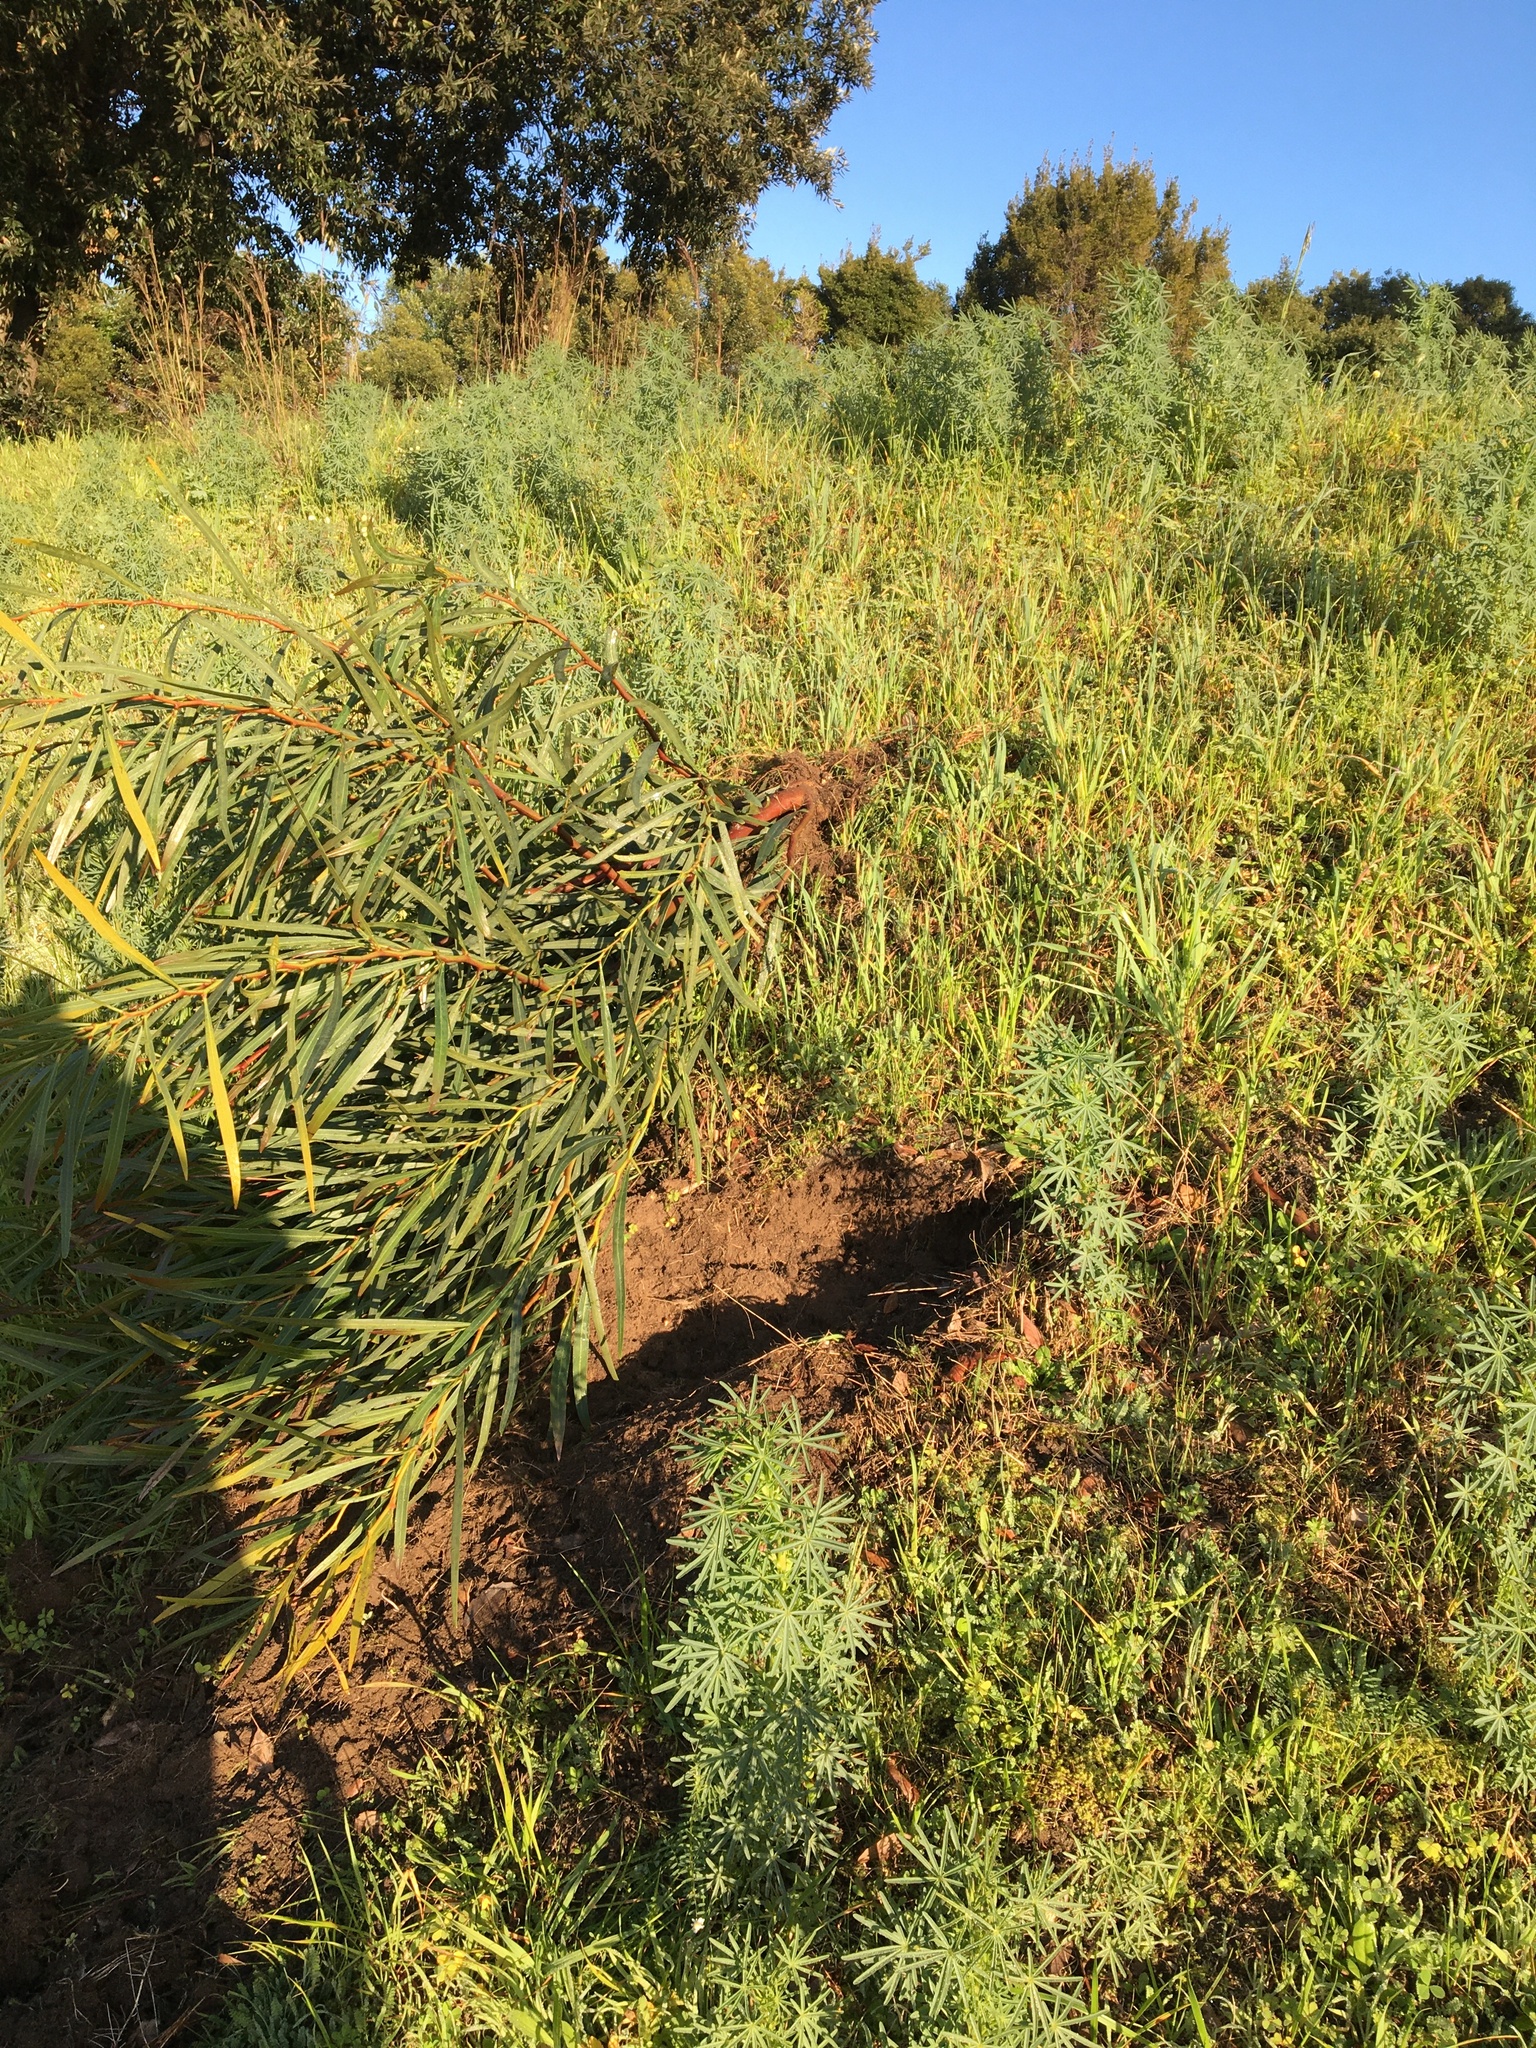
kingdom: Plantae
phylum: Tracheophyta
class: Magnoliopsida
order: Fabales
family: Fabaceae
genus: Acacia
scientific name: Acacia saligna
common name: Orange wattle
